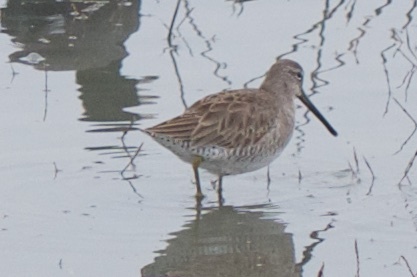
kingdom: Animalia
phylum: Chordata
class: Aves
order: Charadriiformes
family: Scolopacidae
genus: Limnodromus
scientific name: Limnodromus scolopaceus
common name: Long-billed dowitcher
